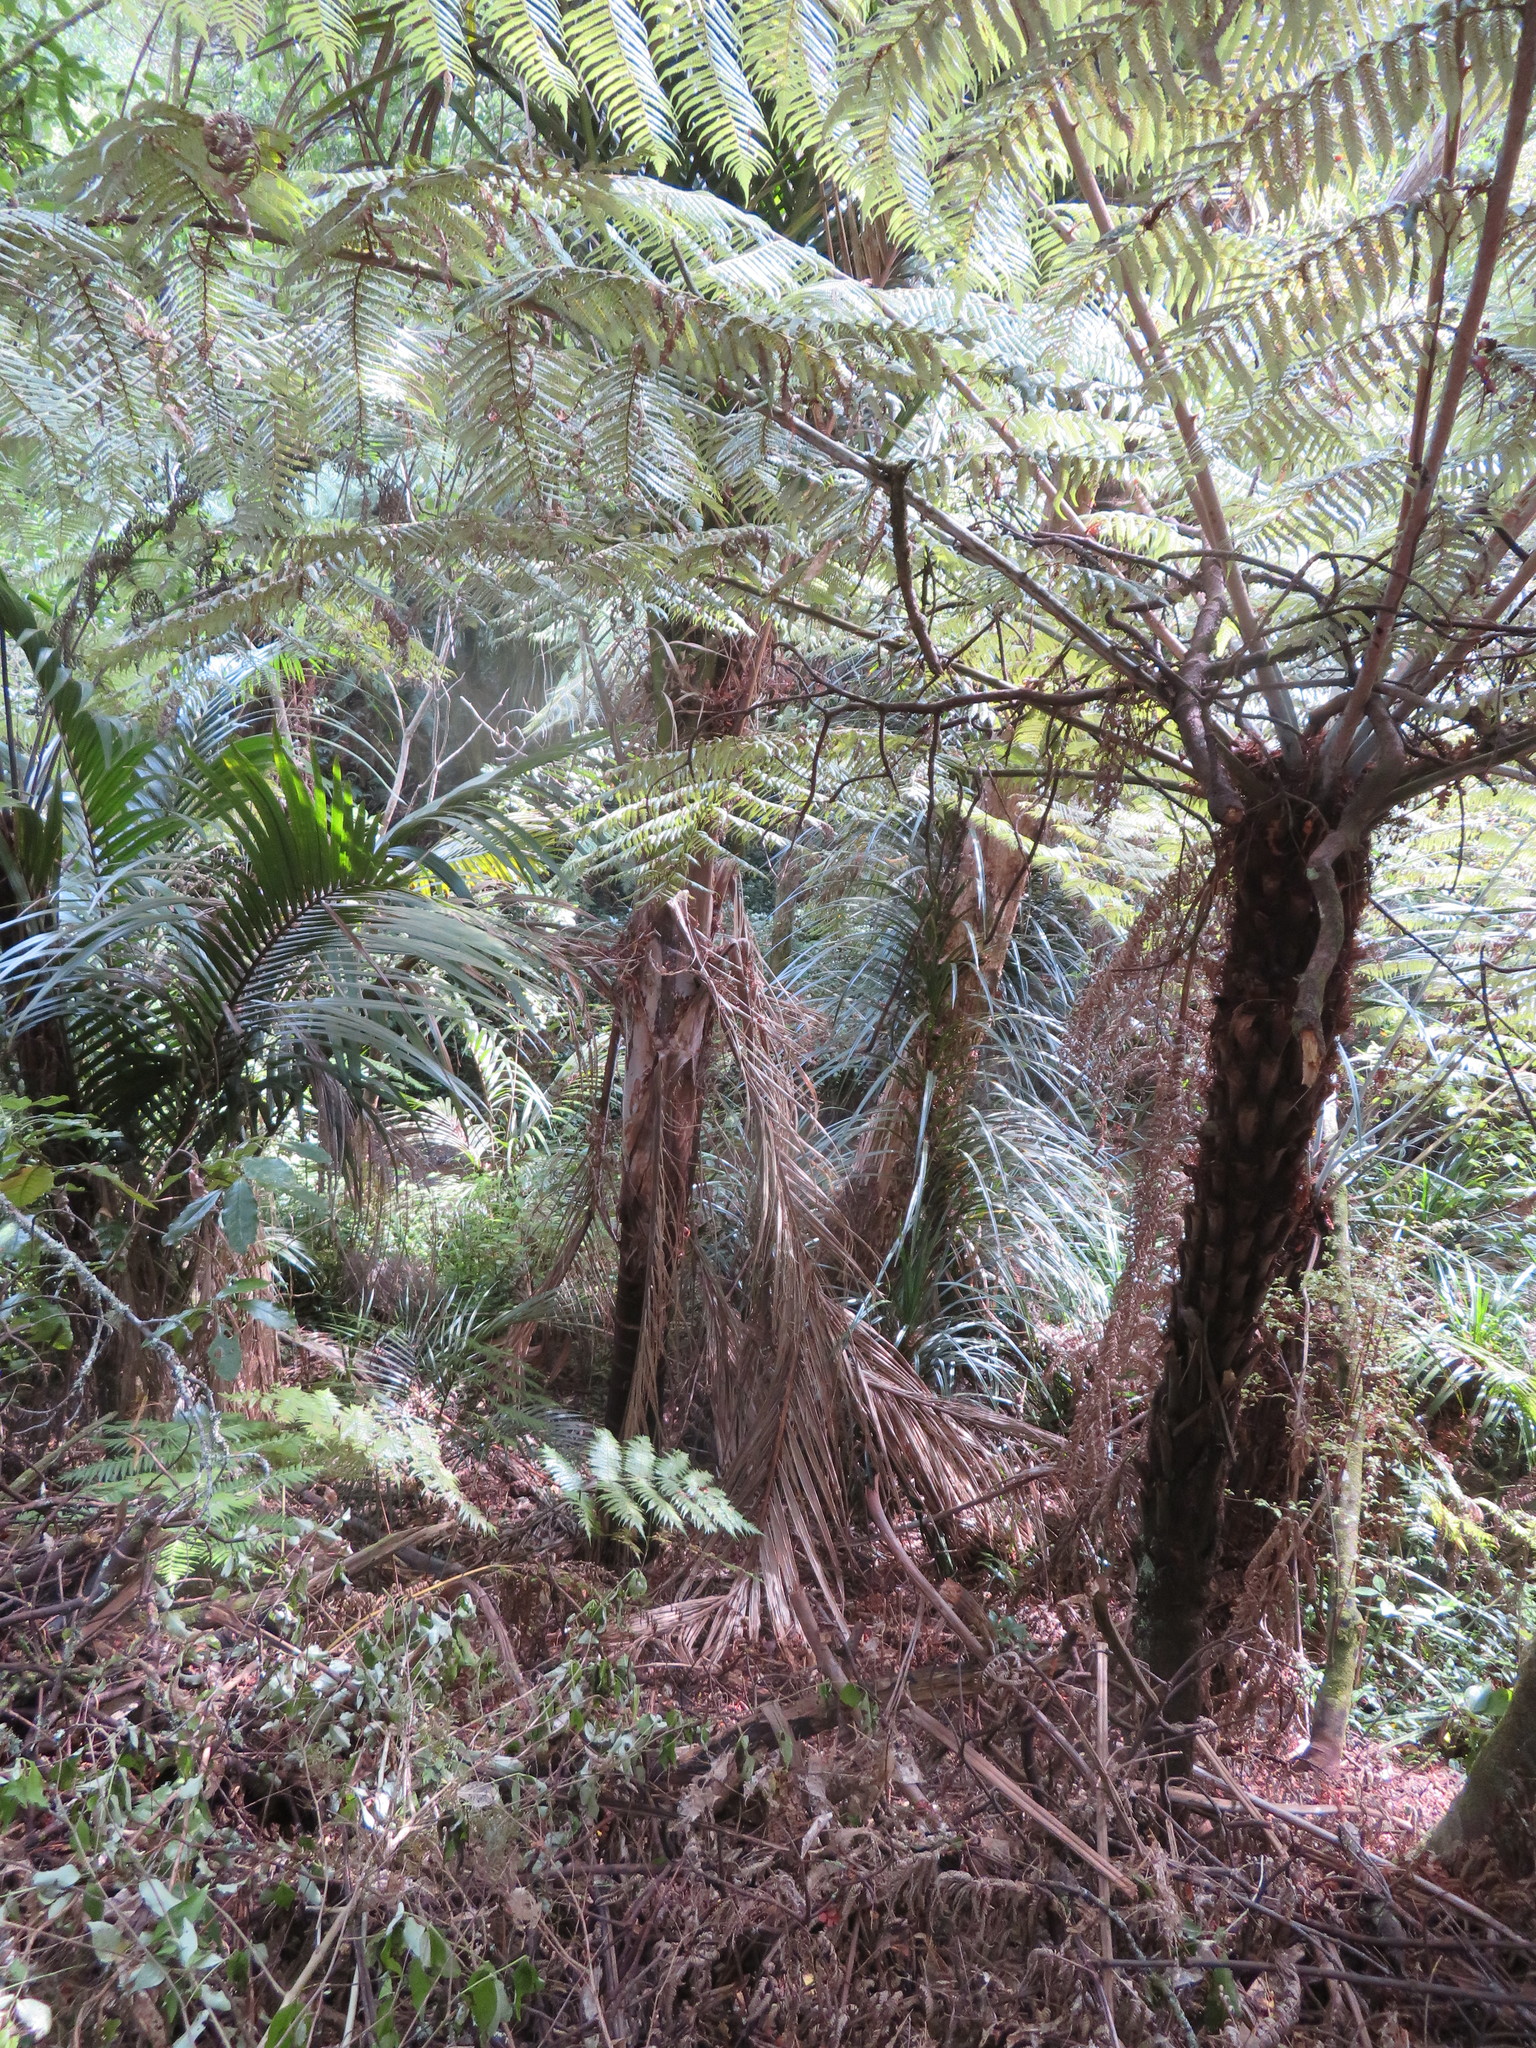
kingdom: Plantae
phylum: Tracheophyta
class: Liliopsida
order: Pandanales
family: Pandanaceae
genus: Freycinetia
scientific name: Freycinetia banksii
